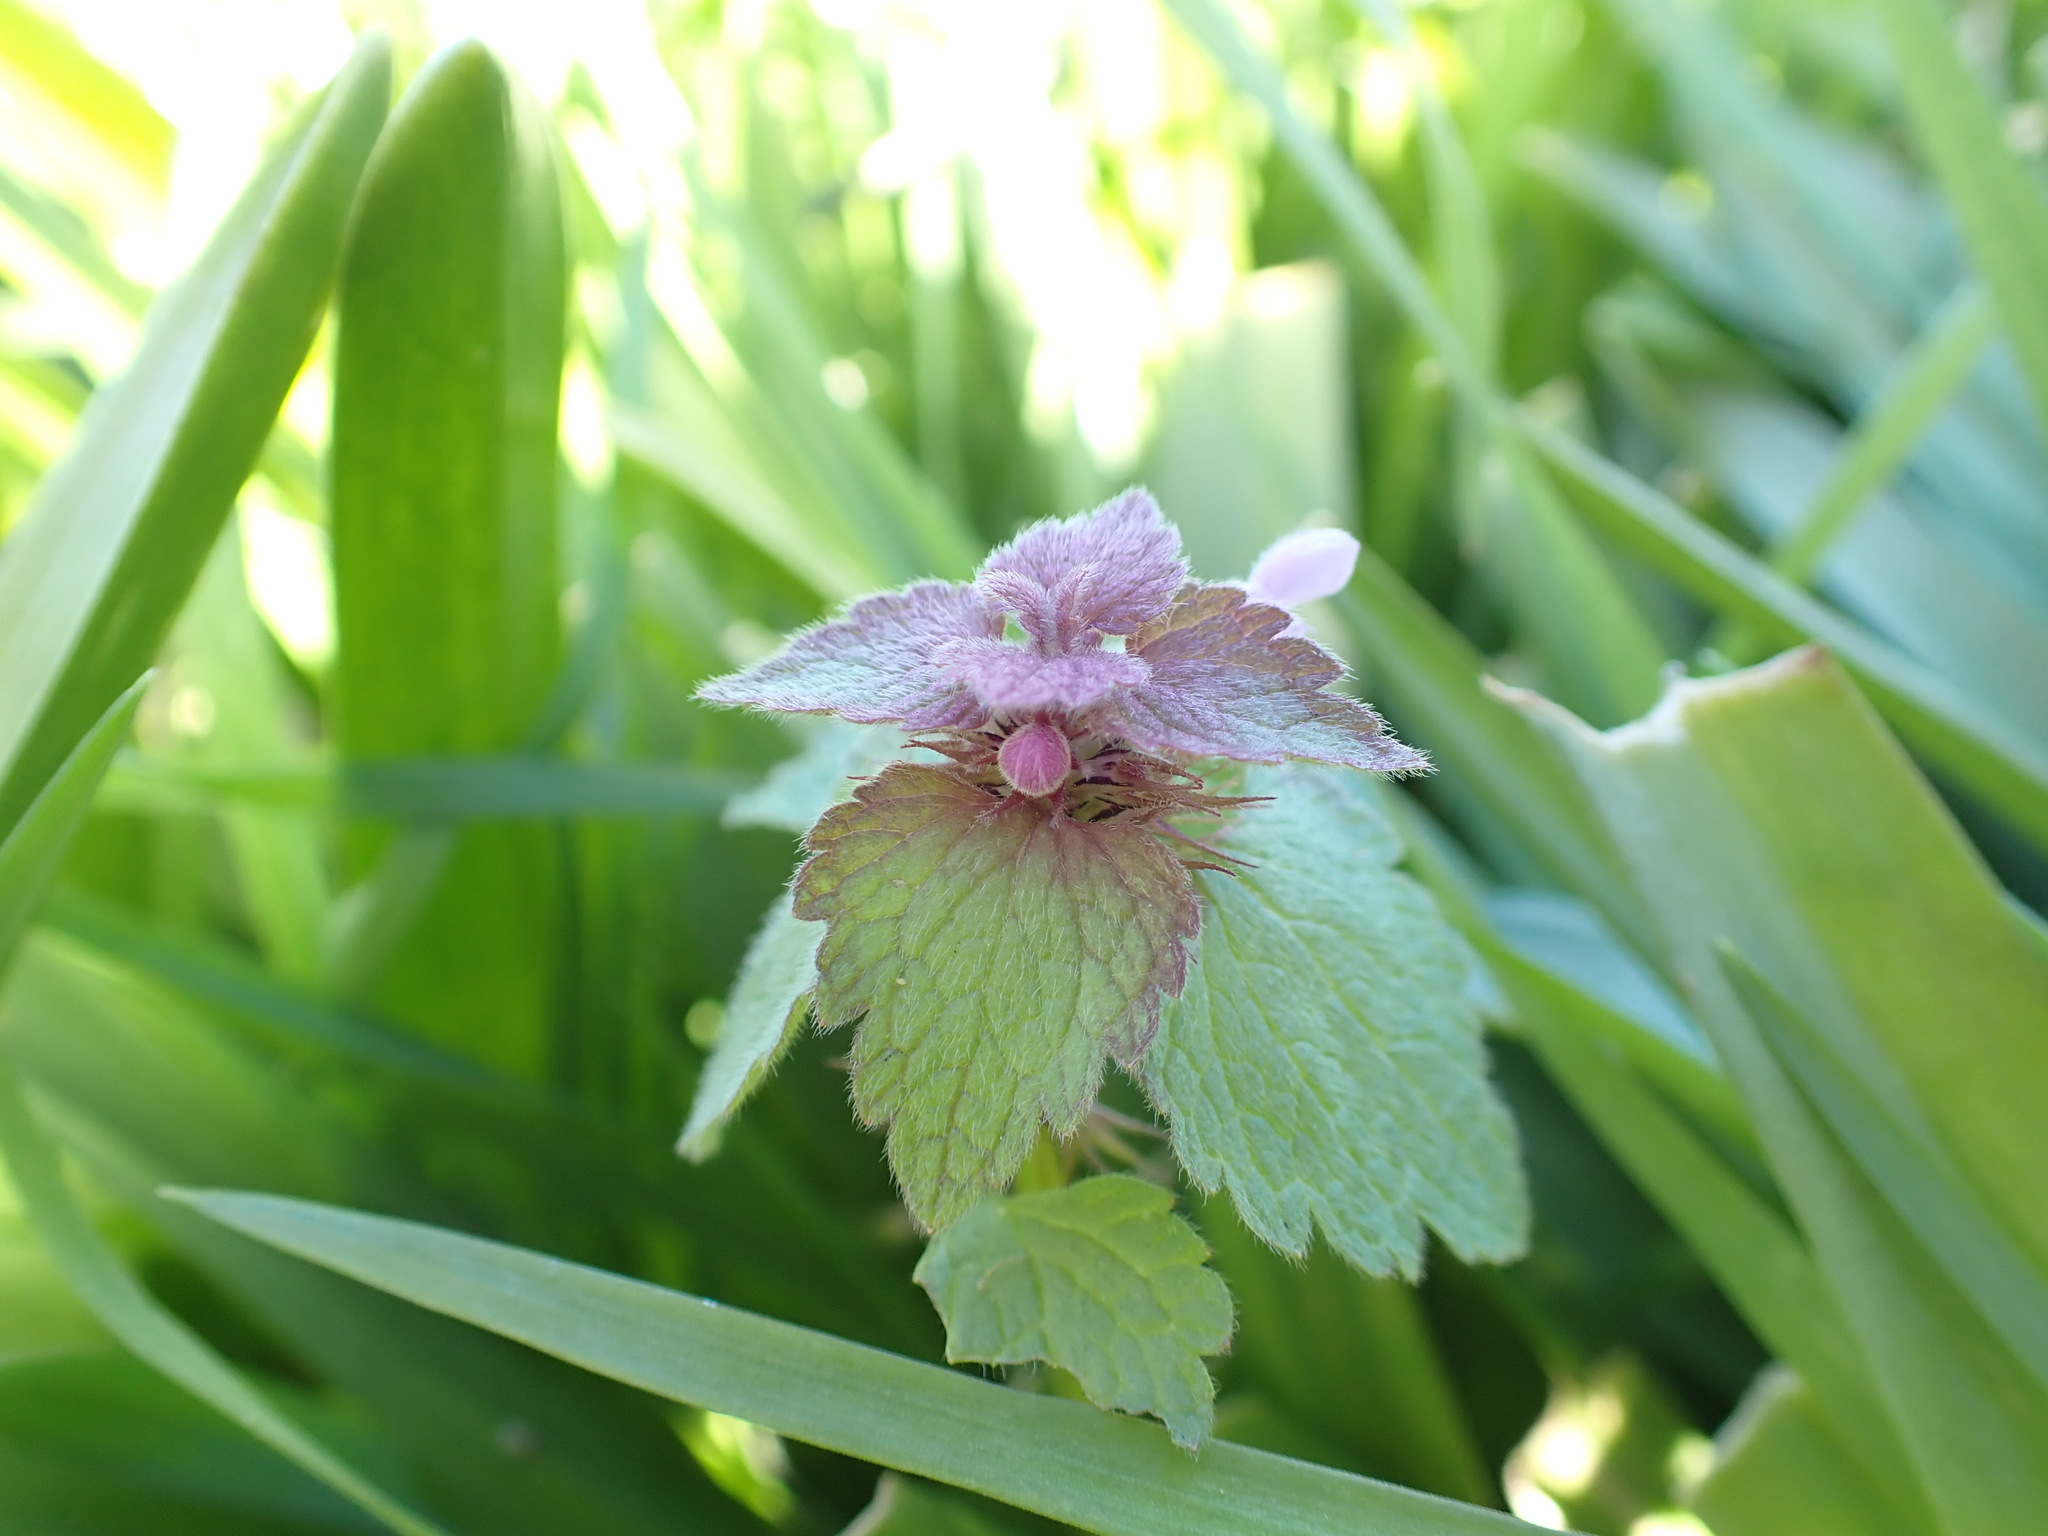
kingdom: Plantae
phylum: Tracheophyta
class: Magnoliopsida
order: Lamiales
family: Lamiaceae
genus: Lamium
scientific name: Lamium purpureum
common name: Red dead-nettle
